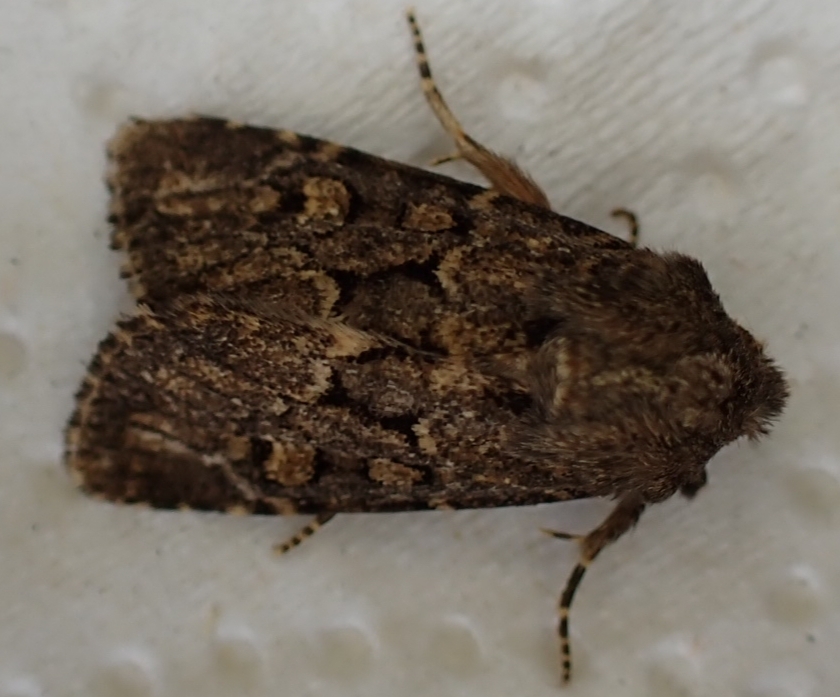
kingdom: Animalia
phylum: Arthropoda
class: Insecta
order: Lepidoptera
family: Noctuidae
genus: Luperina
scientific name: Luperina testacea
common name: Flounced rustic
